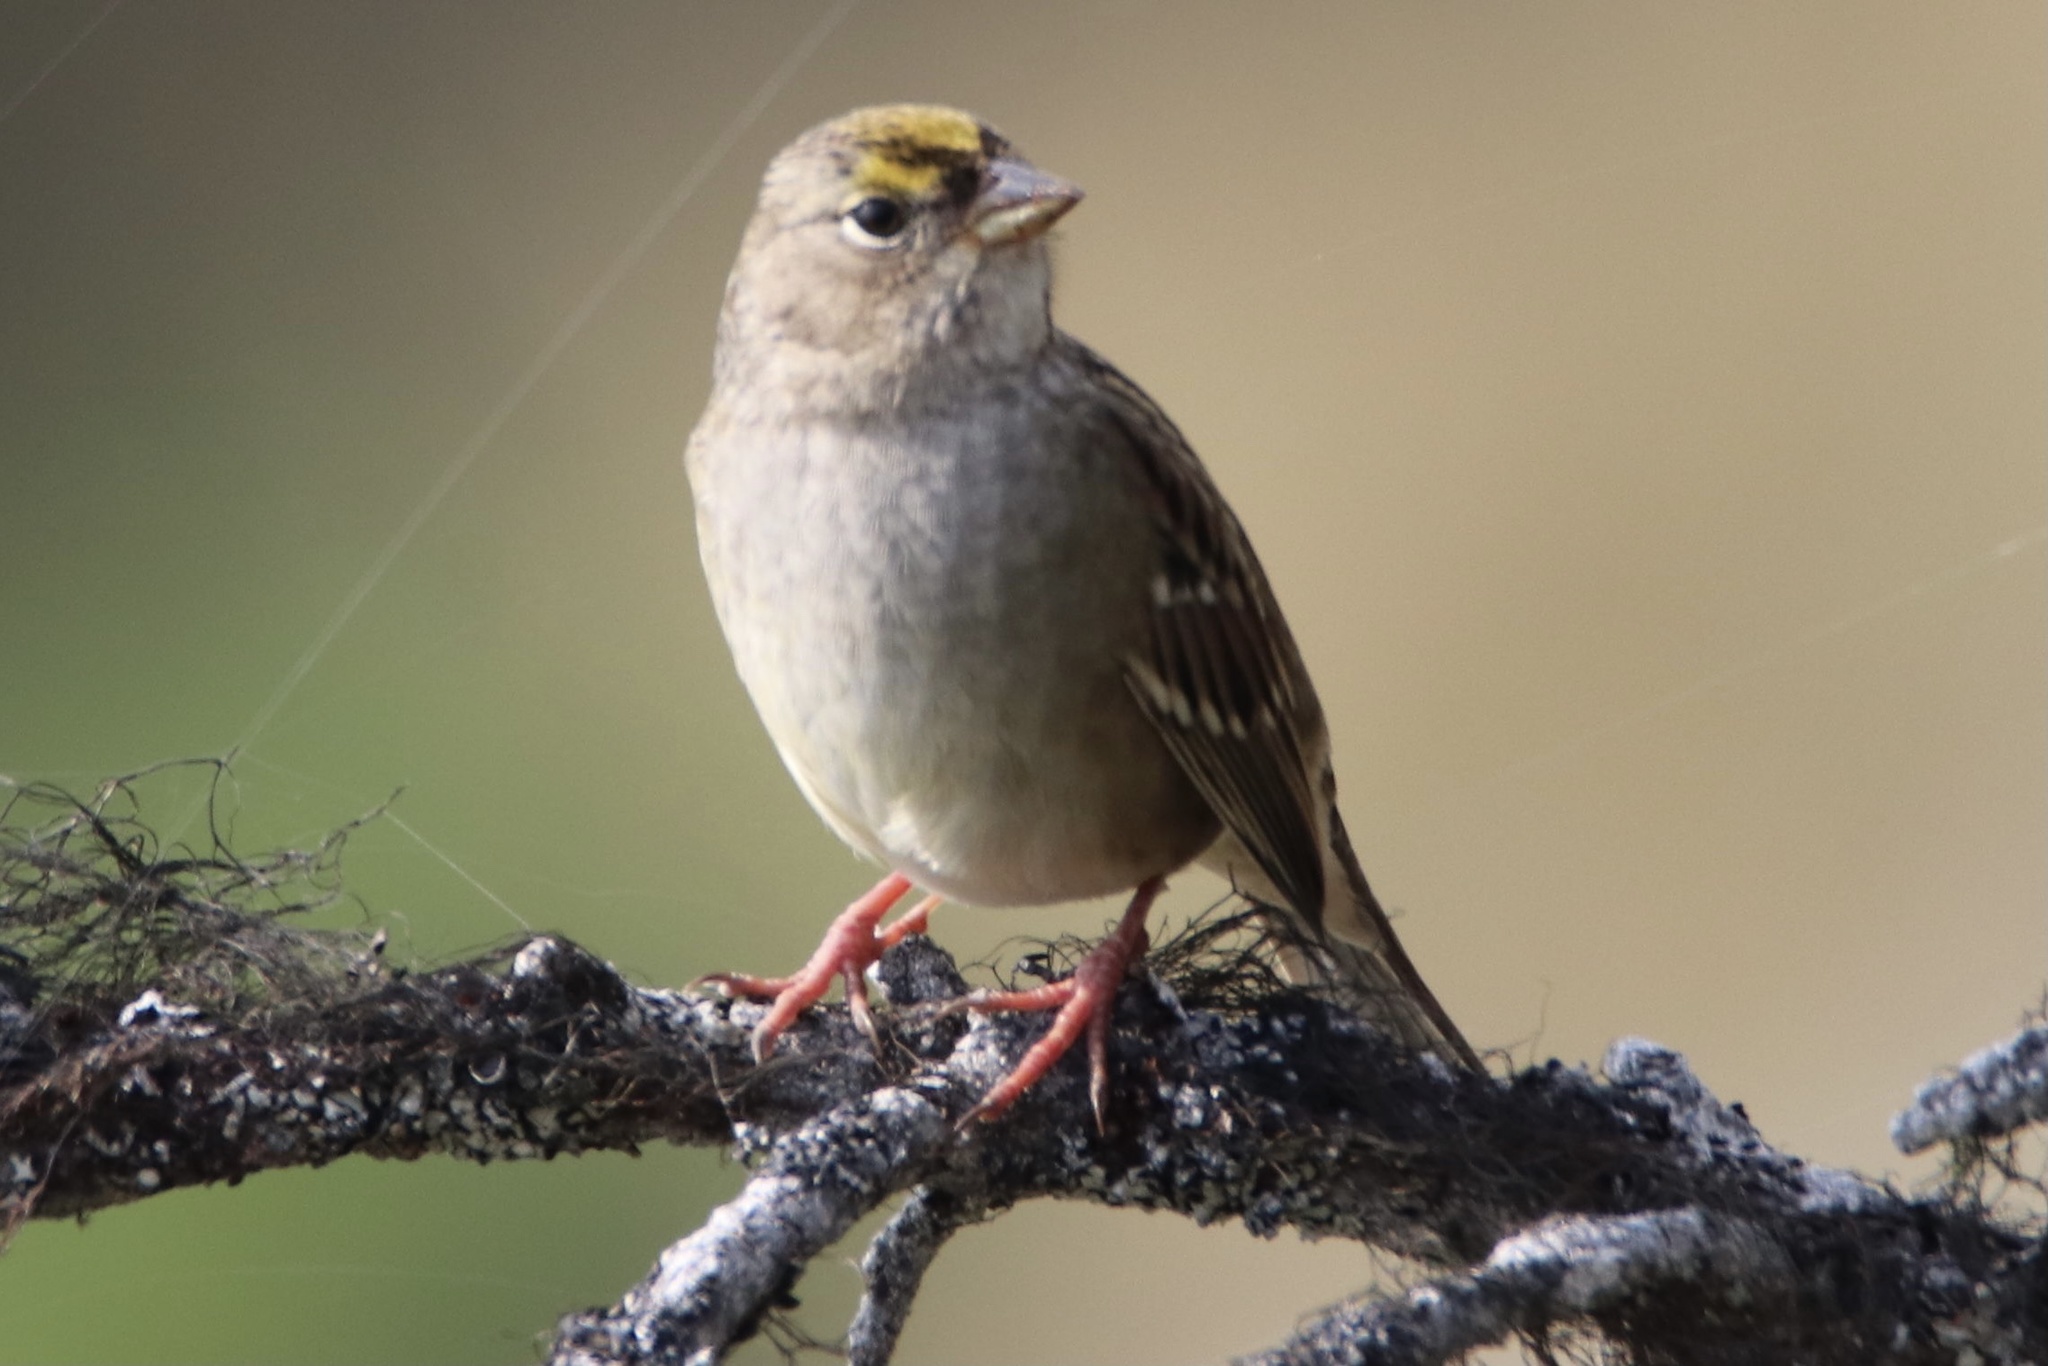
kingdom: Animalia
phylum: Chordata
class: Aves
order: Passeriformes
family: Passerellidae
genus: Zonotrichia
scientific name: Zonotrichia atricapilla
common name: Golden-crowned sparrow
